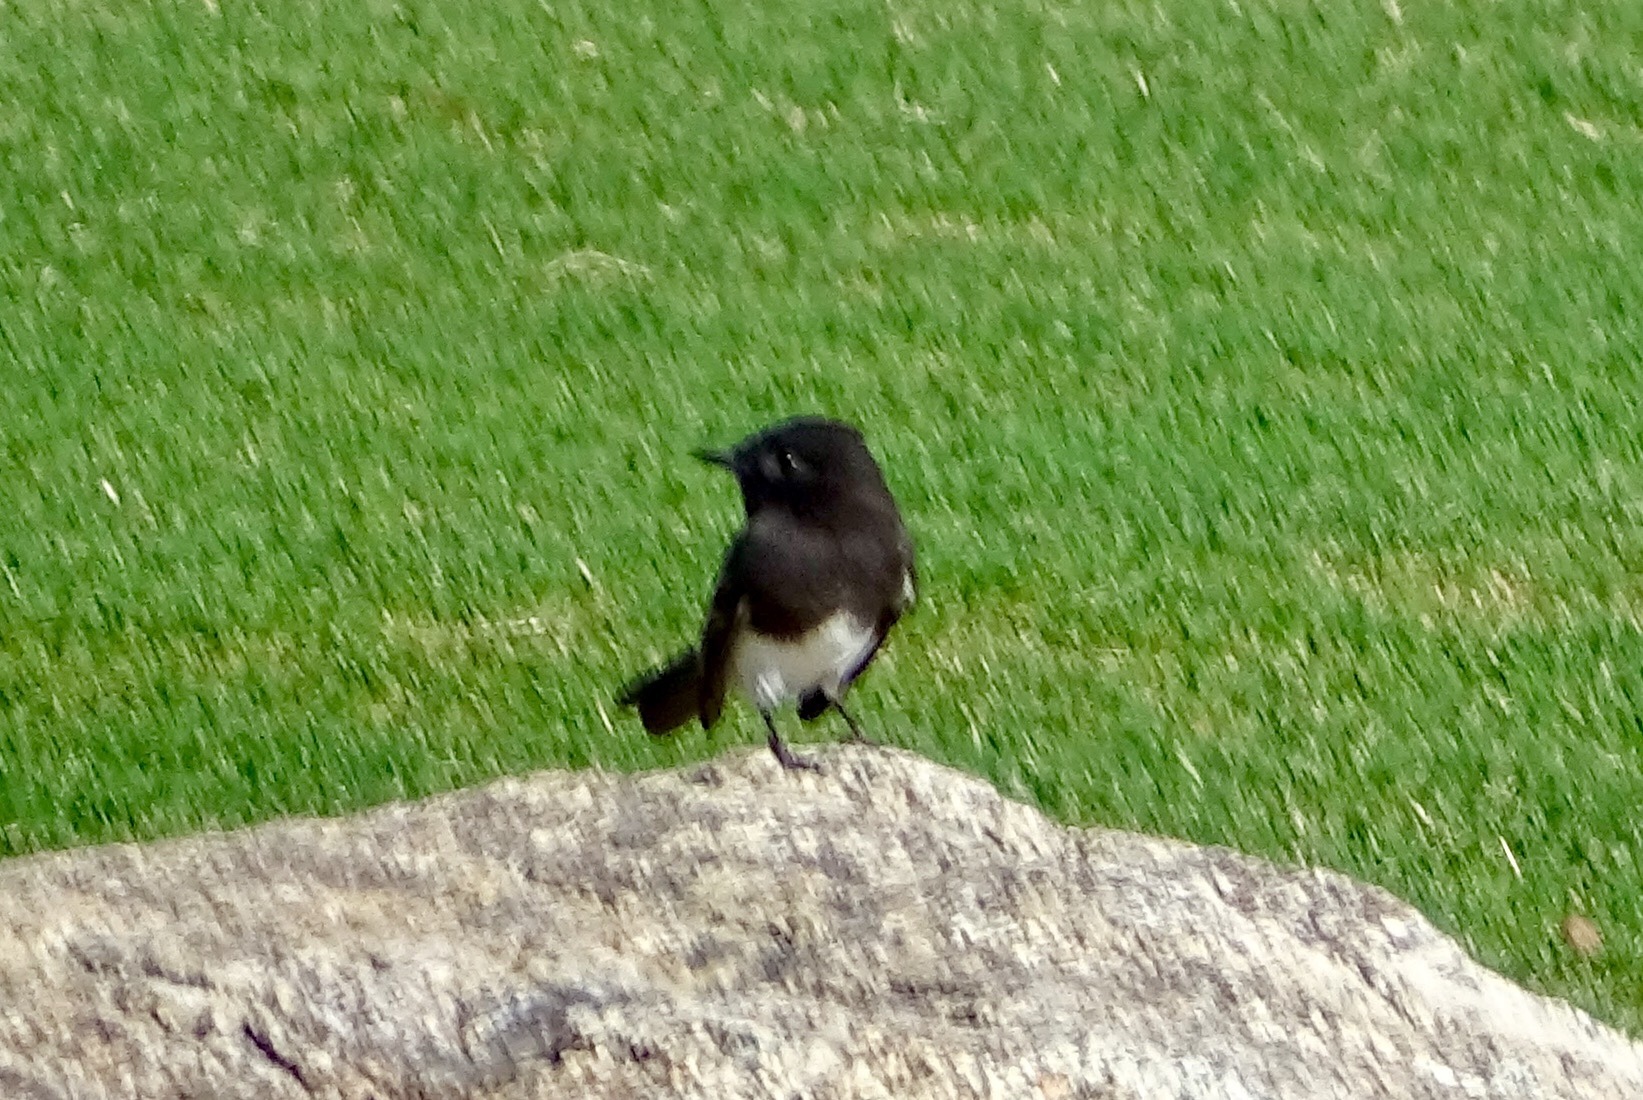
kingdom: Animalia
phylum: Chordata
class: Aves
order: Passeriformes
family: Tyrannidae
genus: Sayornis
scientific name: Sayornis nigricans
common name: Black phoebe
